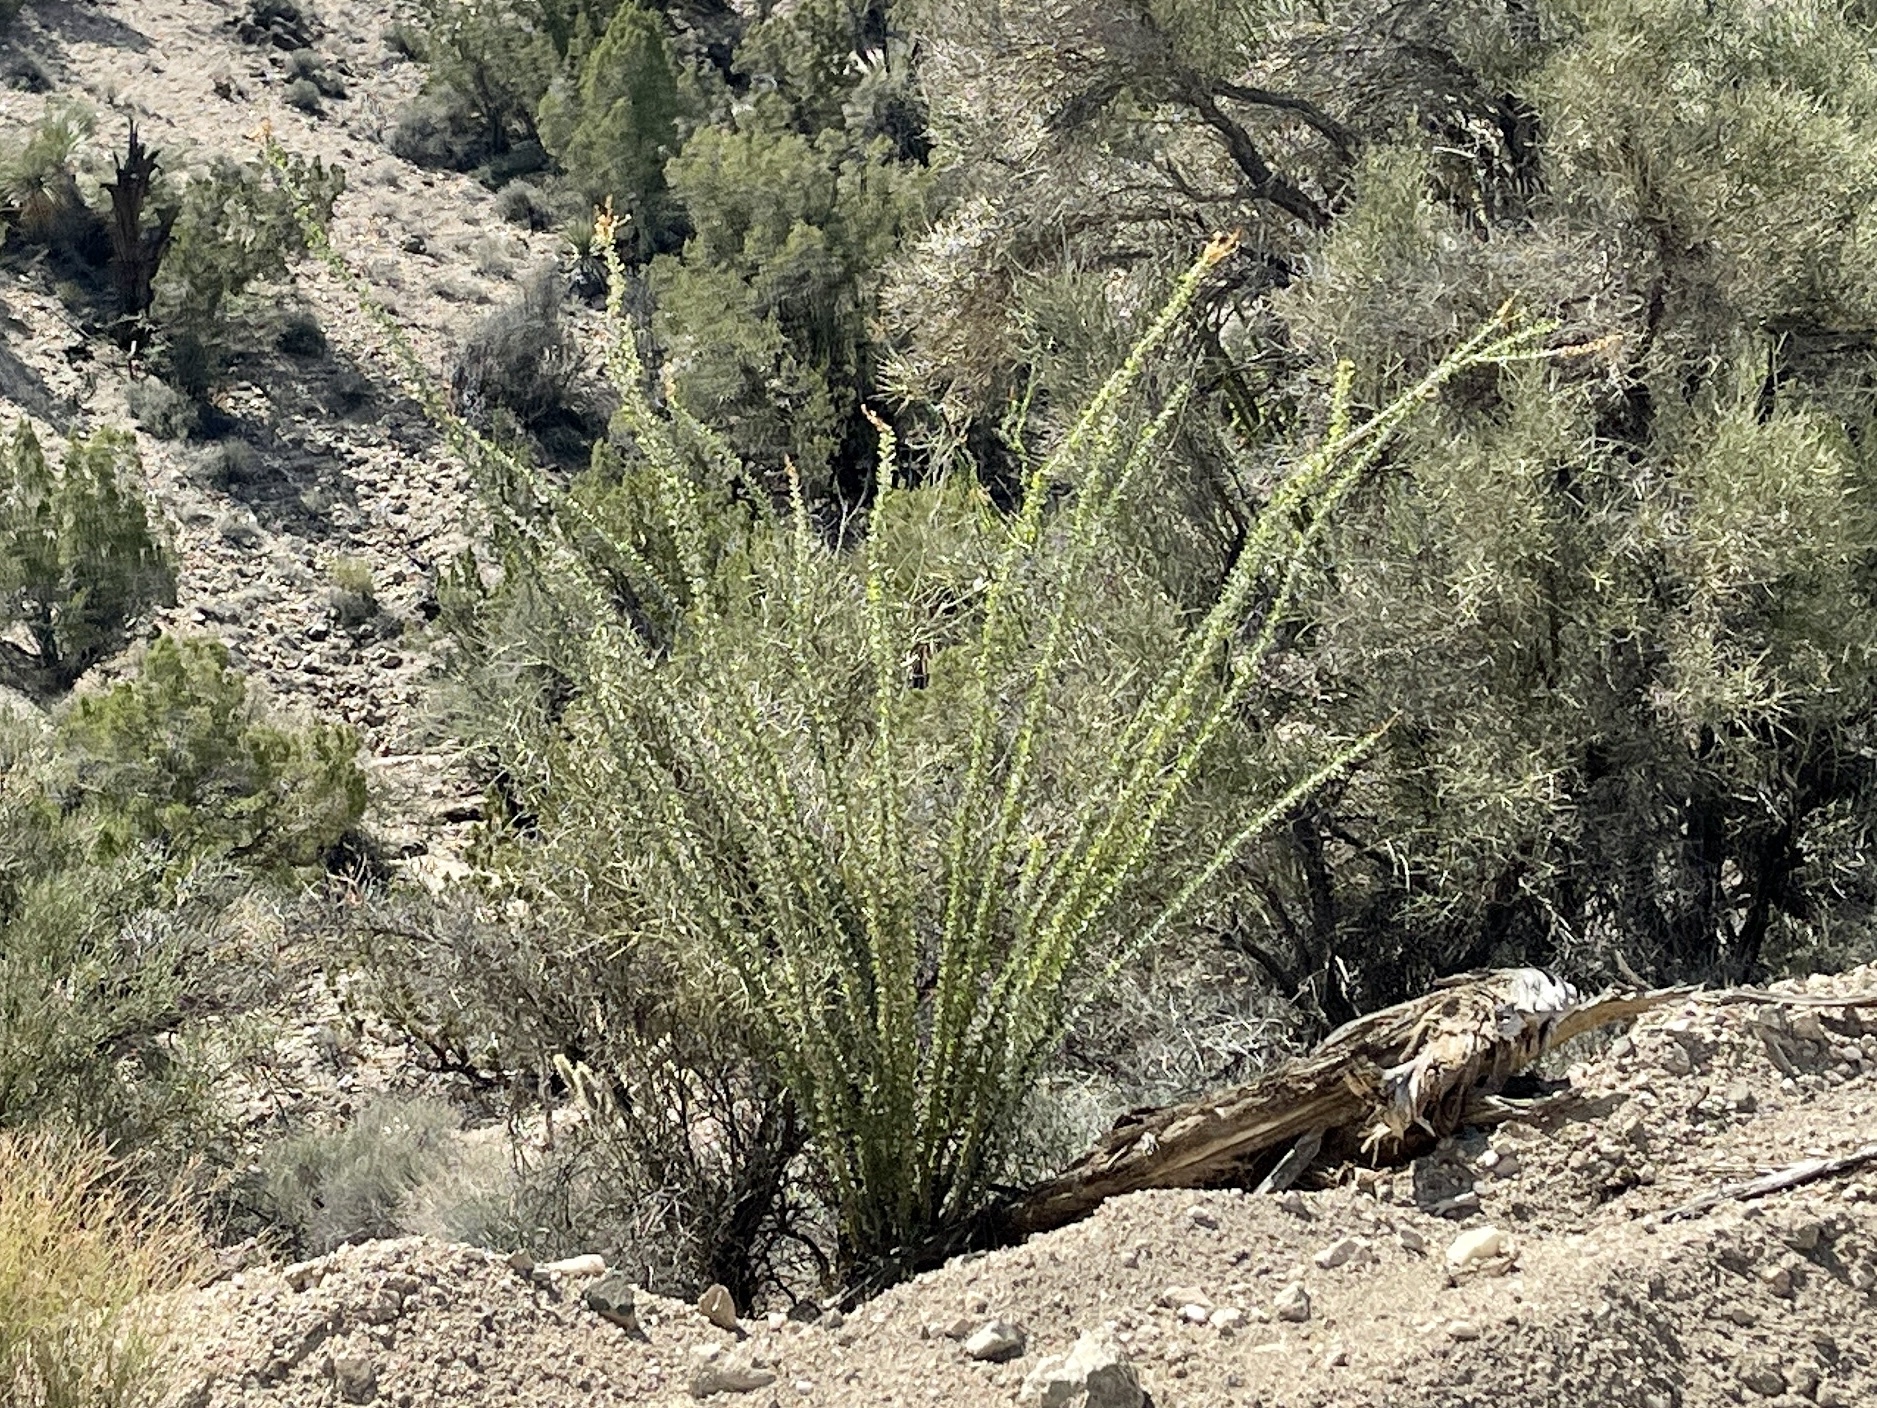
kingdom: Plantae
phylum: Tracheophyta
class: Magnoliopsida
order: Ericales
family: Fouquieriaceae
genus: Fouquieria
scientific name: Fouquieria splendens
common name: Vine-cactus
